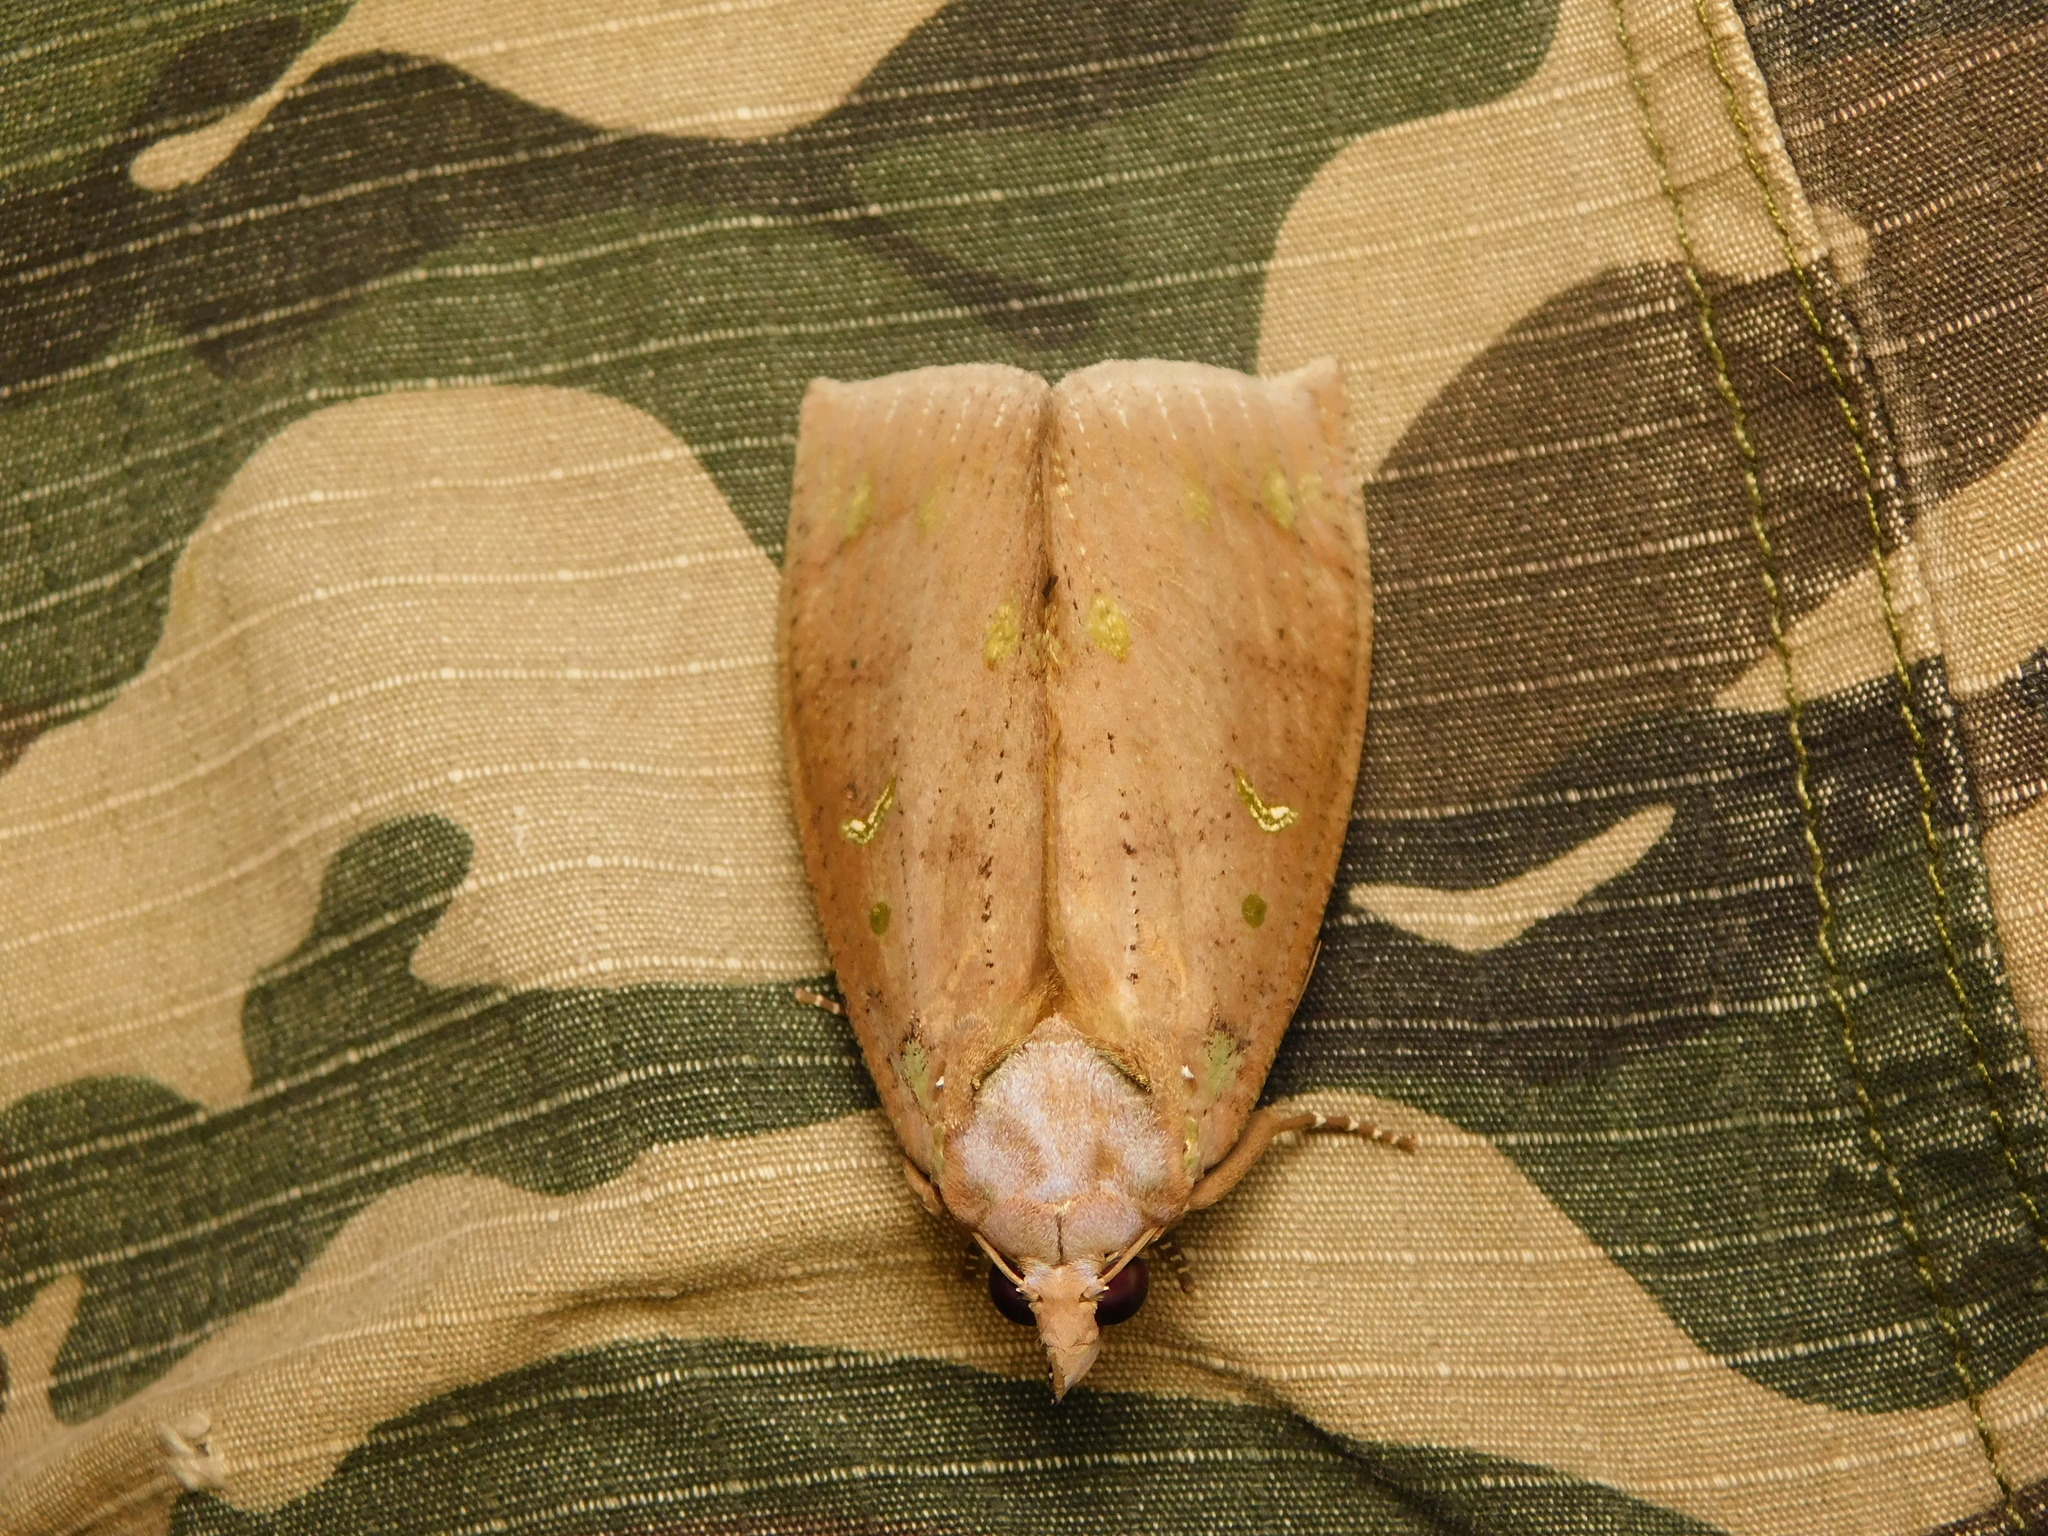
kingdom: Animalia
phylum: Arthropoda
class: Insecta
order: Lepidoptera
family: Erebidae
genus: Eudocima
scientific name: Eudocima discrepans
